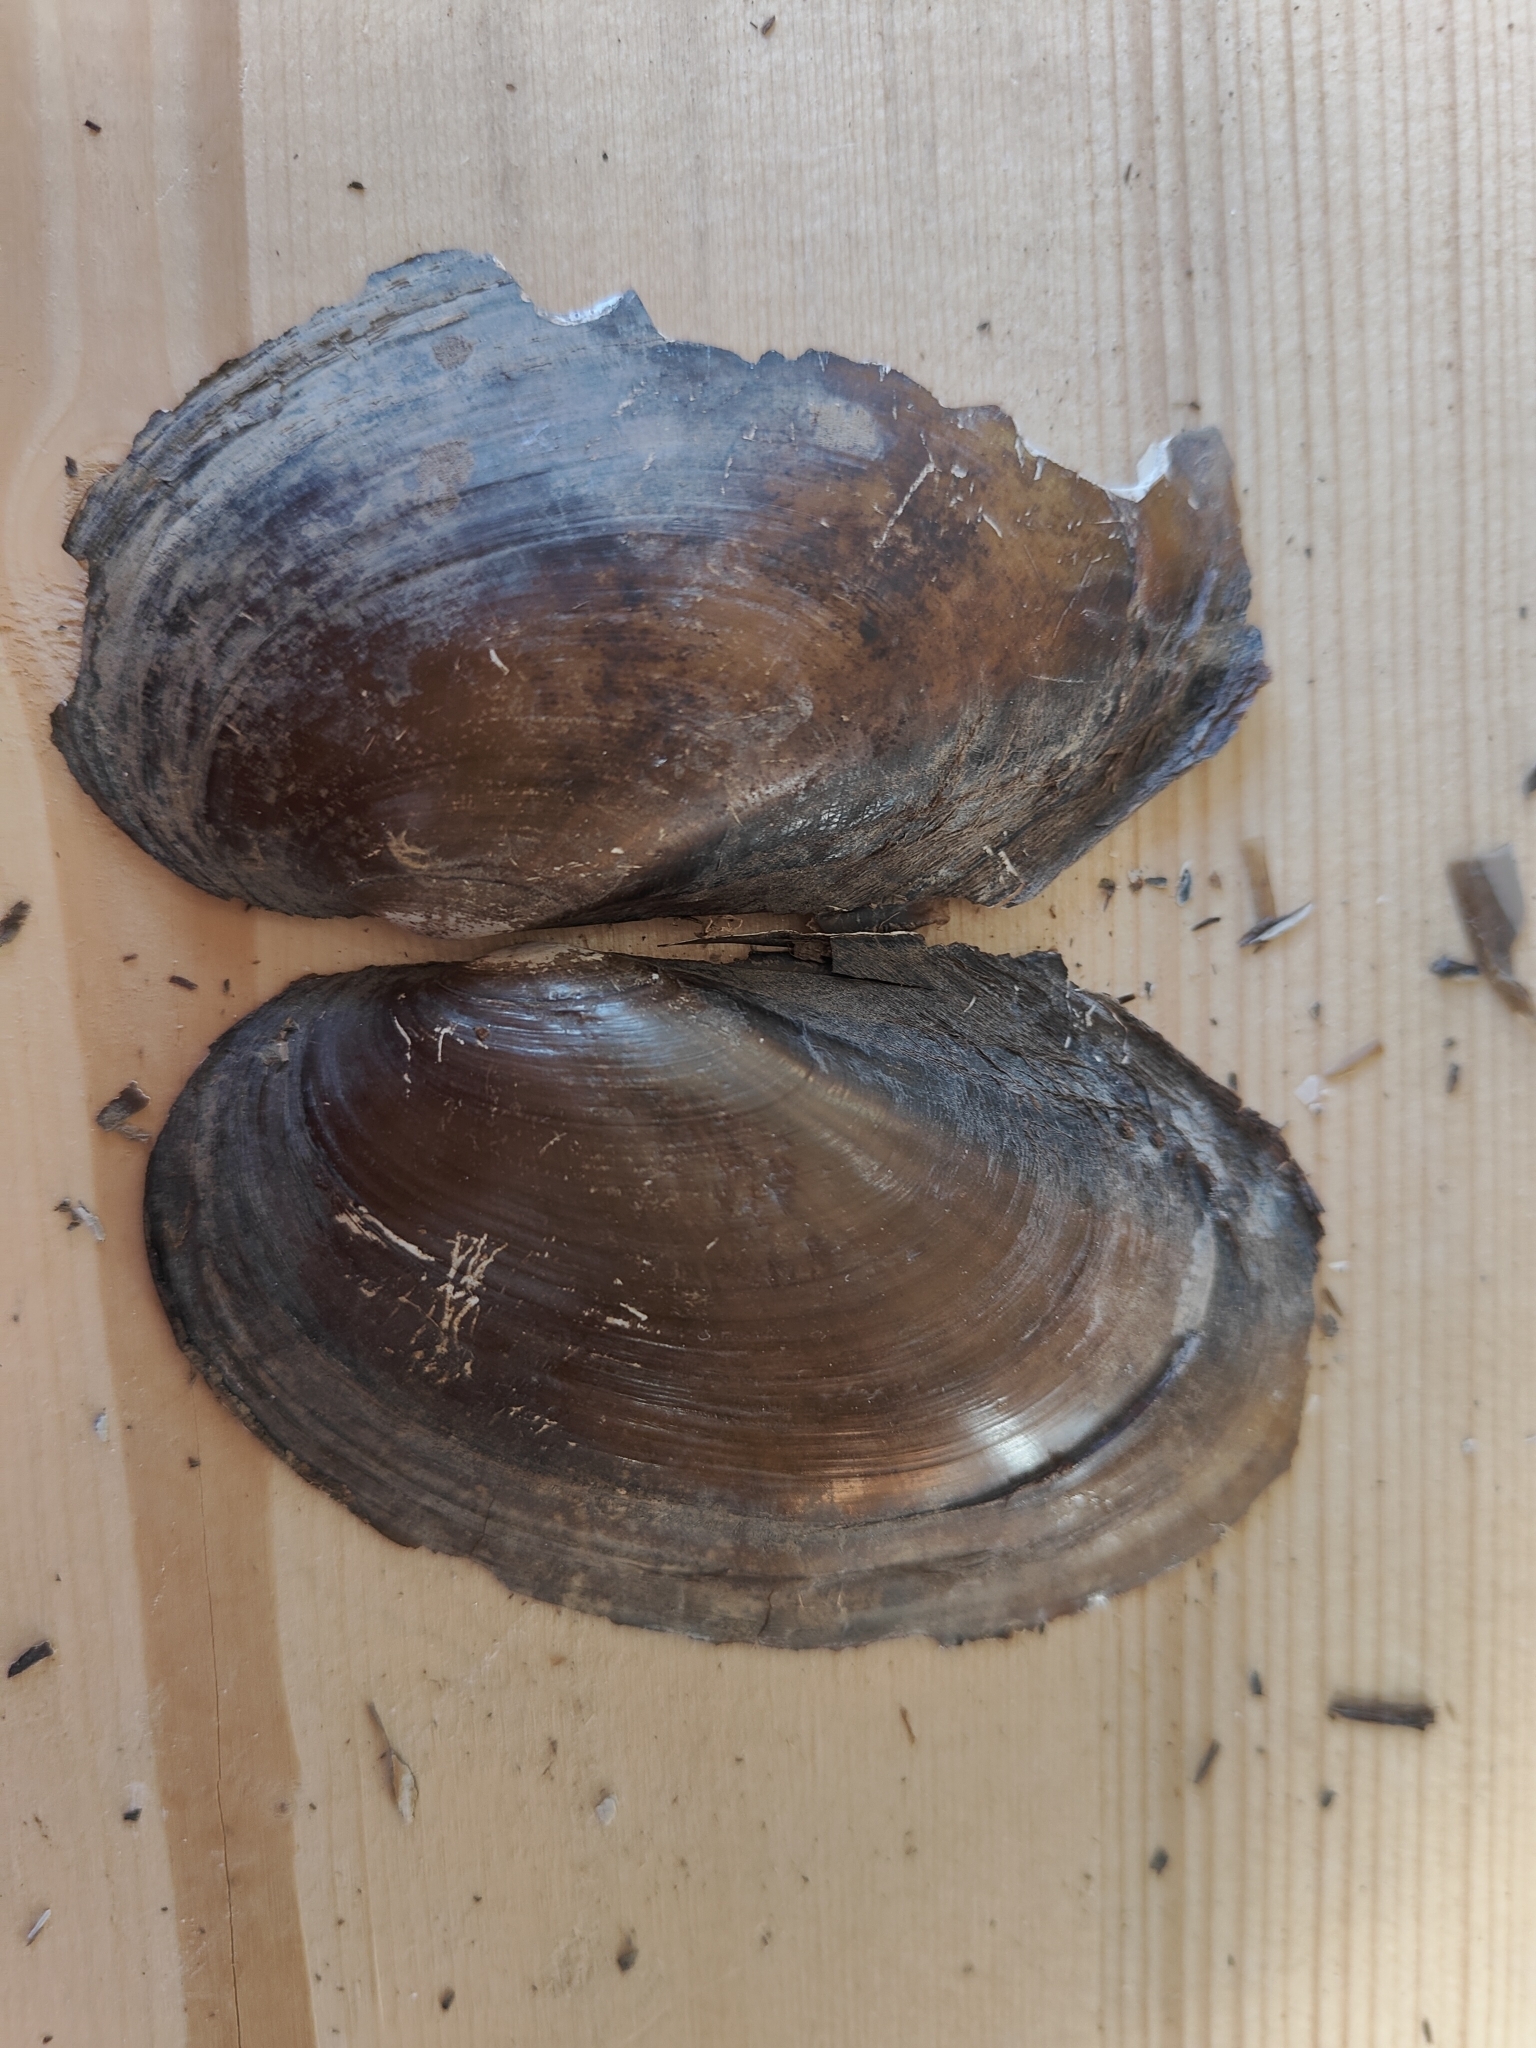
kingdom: Animalia
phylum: Mollusca
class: Bivalvia
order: Unionida
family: Unionidae
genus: Potamilus
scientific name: Potamilus fragilis
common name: Fragile papershell
